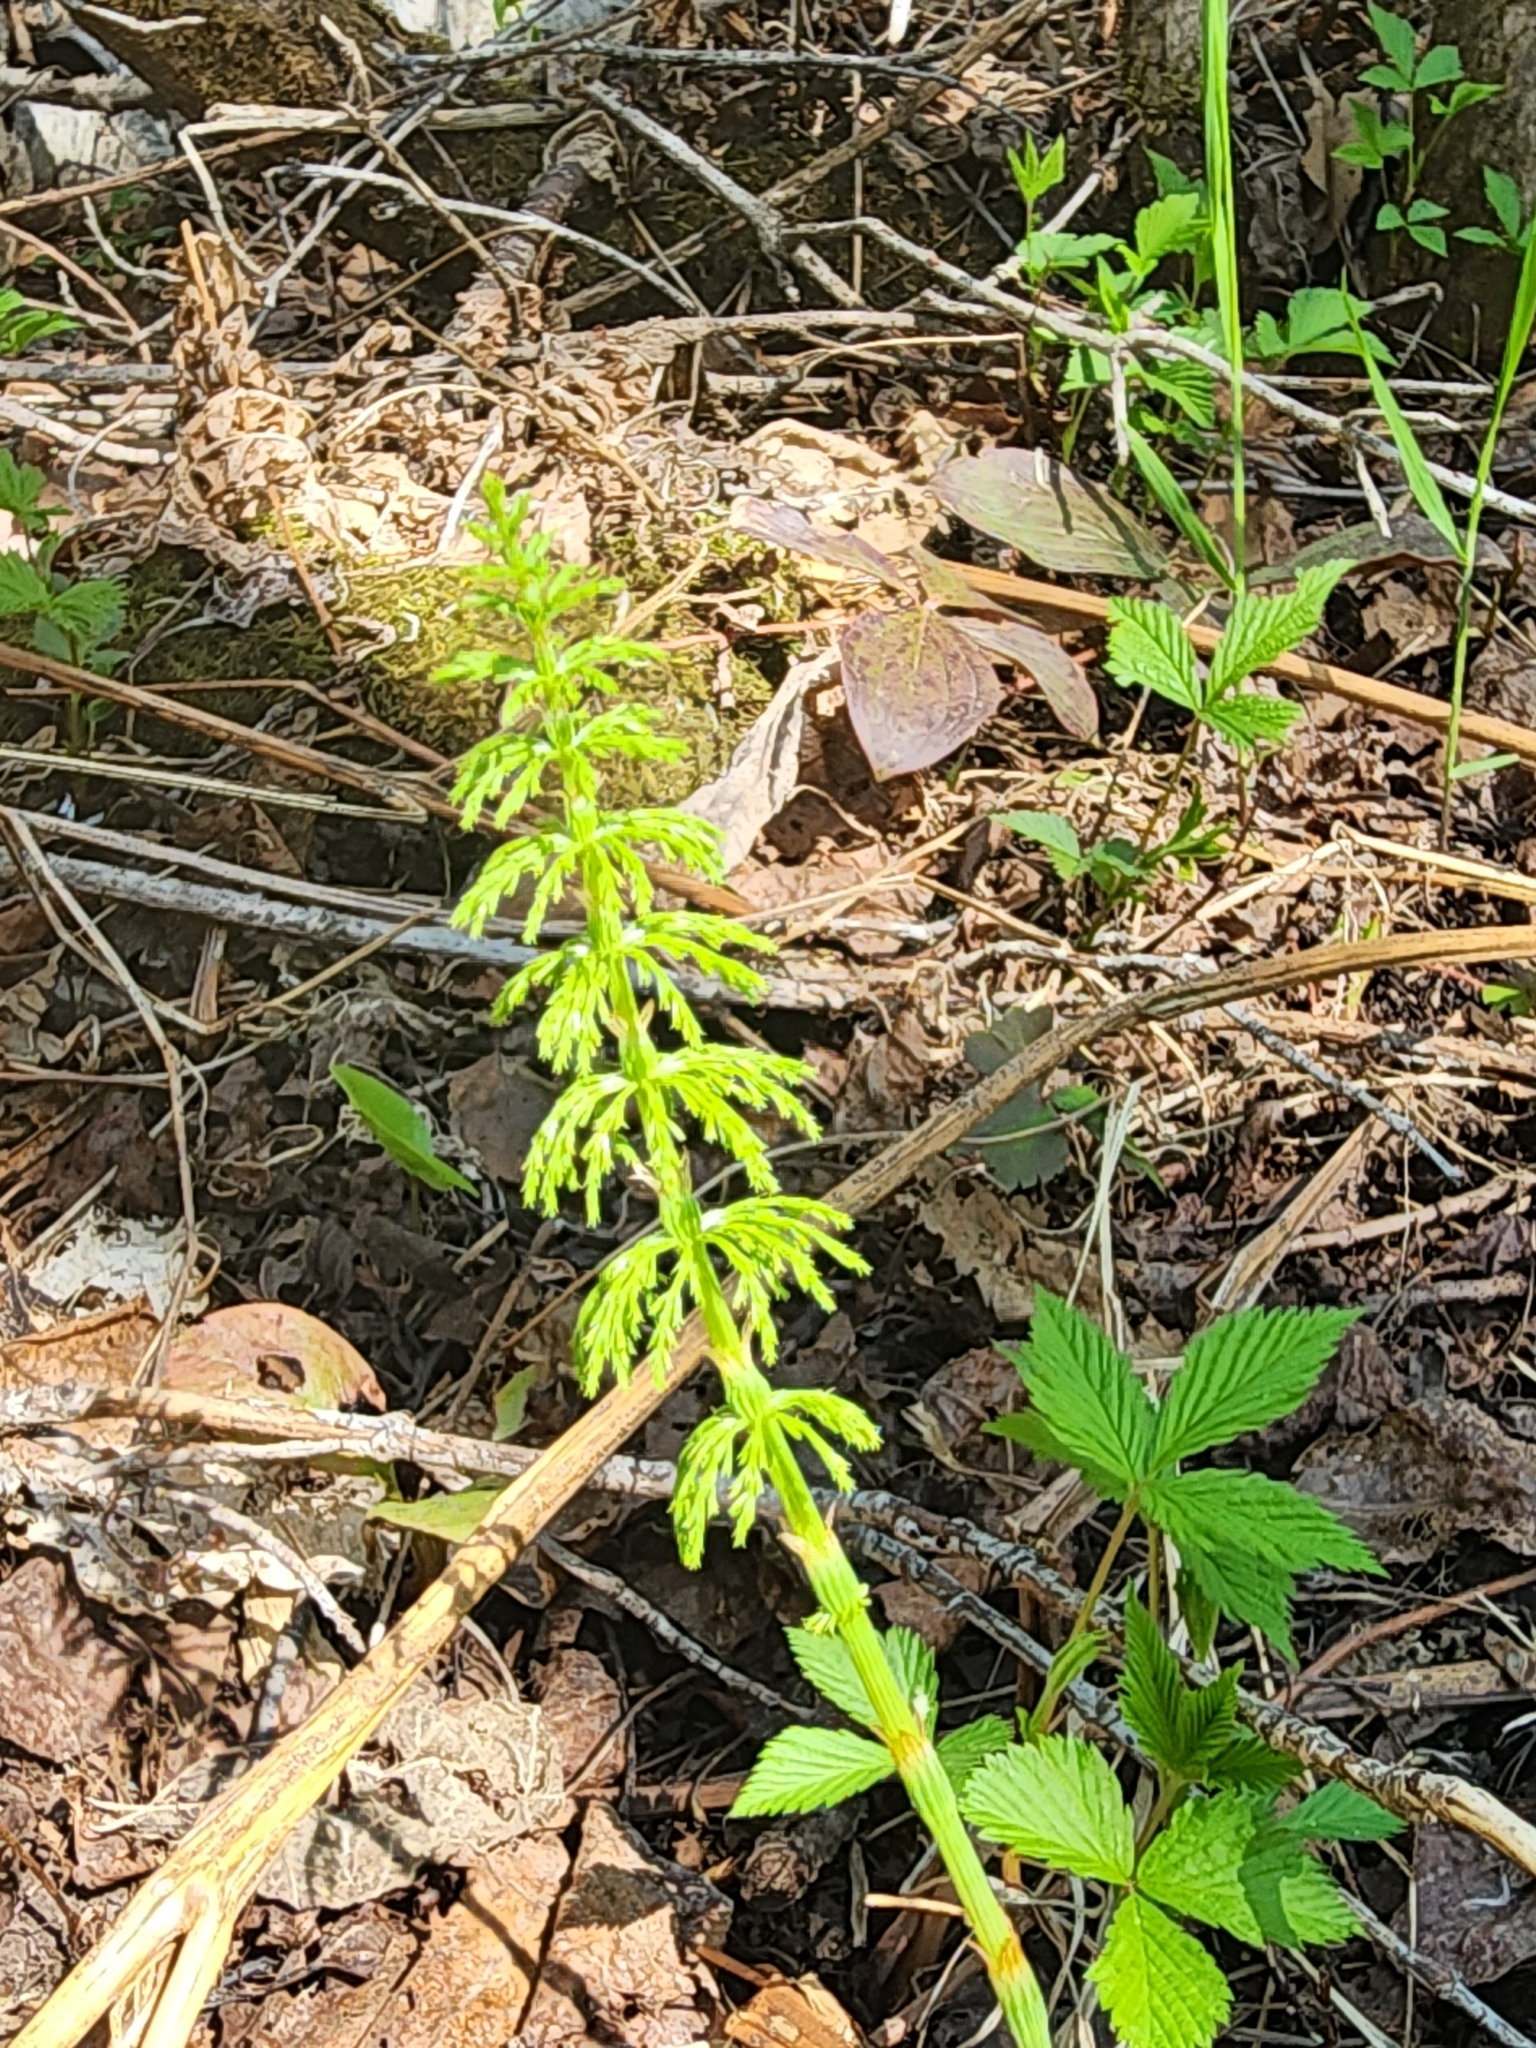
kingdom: Plantae
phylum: Tracheophyta
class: Polypodiopsida
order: Equisetales
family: Equisetaceae
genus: Equisetum
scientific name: Equisetum sylvaticum
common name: Wood horsetail
